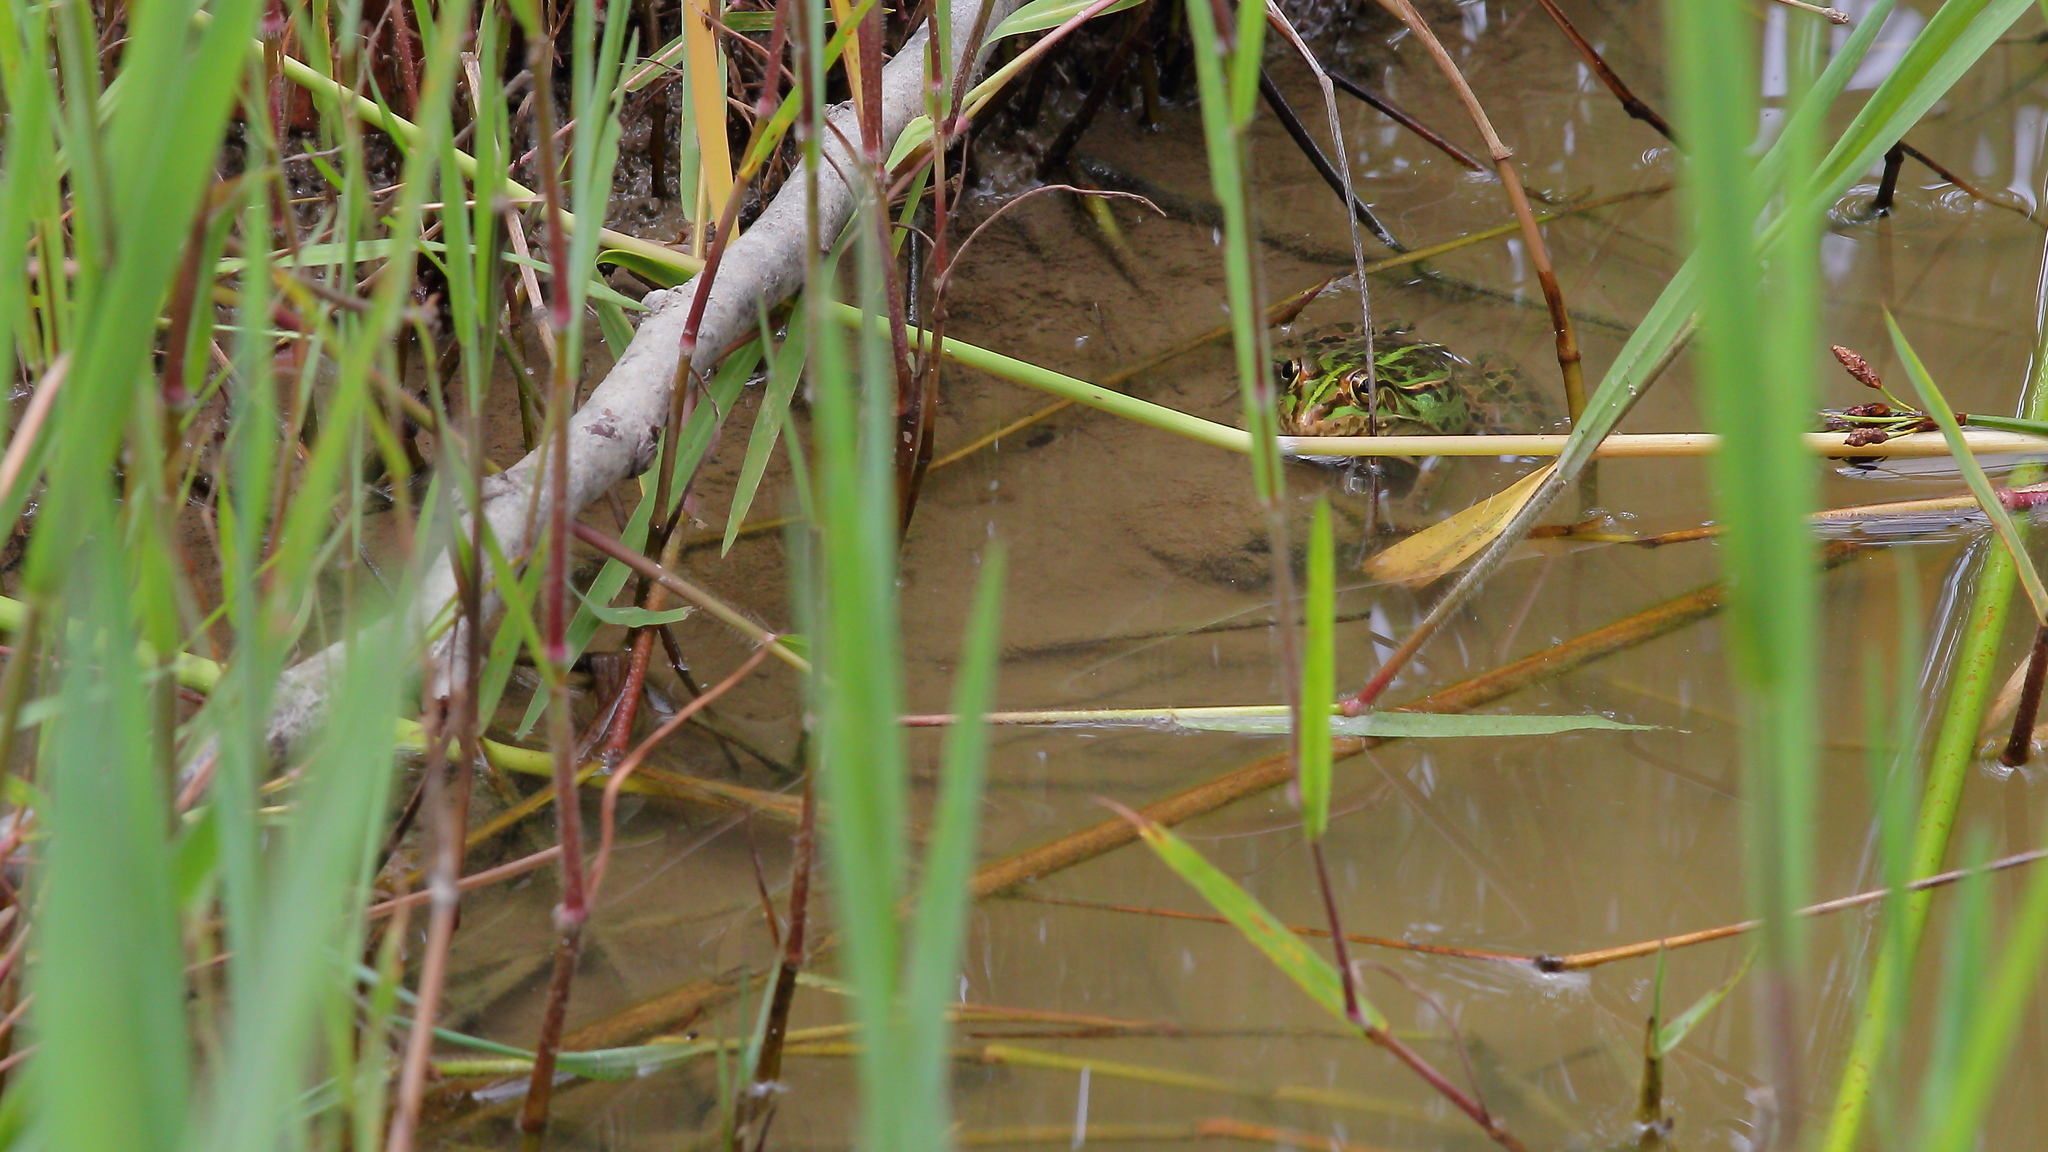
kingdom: Animalia
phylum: Chordata
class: Amphibia
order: Anura
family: Ranidae
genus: Pelophylax
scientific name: Pelophylax porosus
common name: Daruma pond frog (rana porosa brevipoda)
